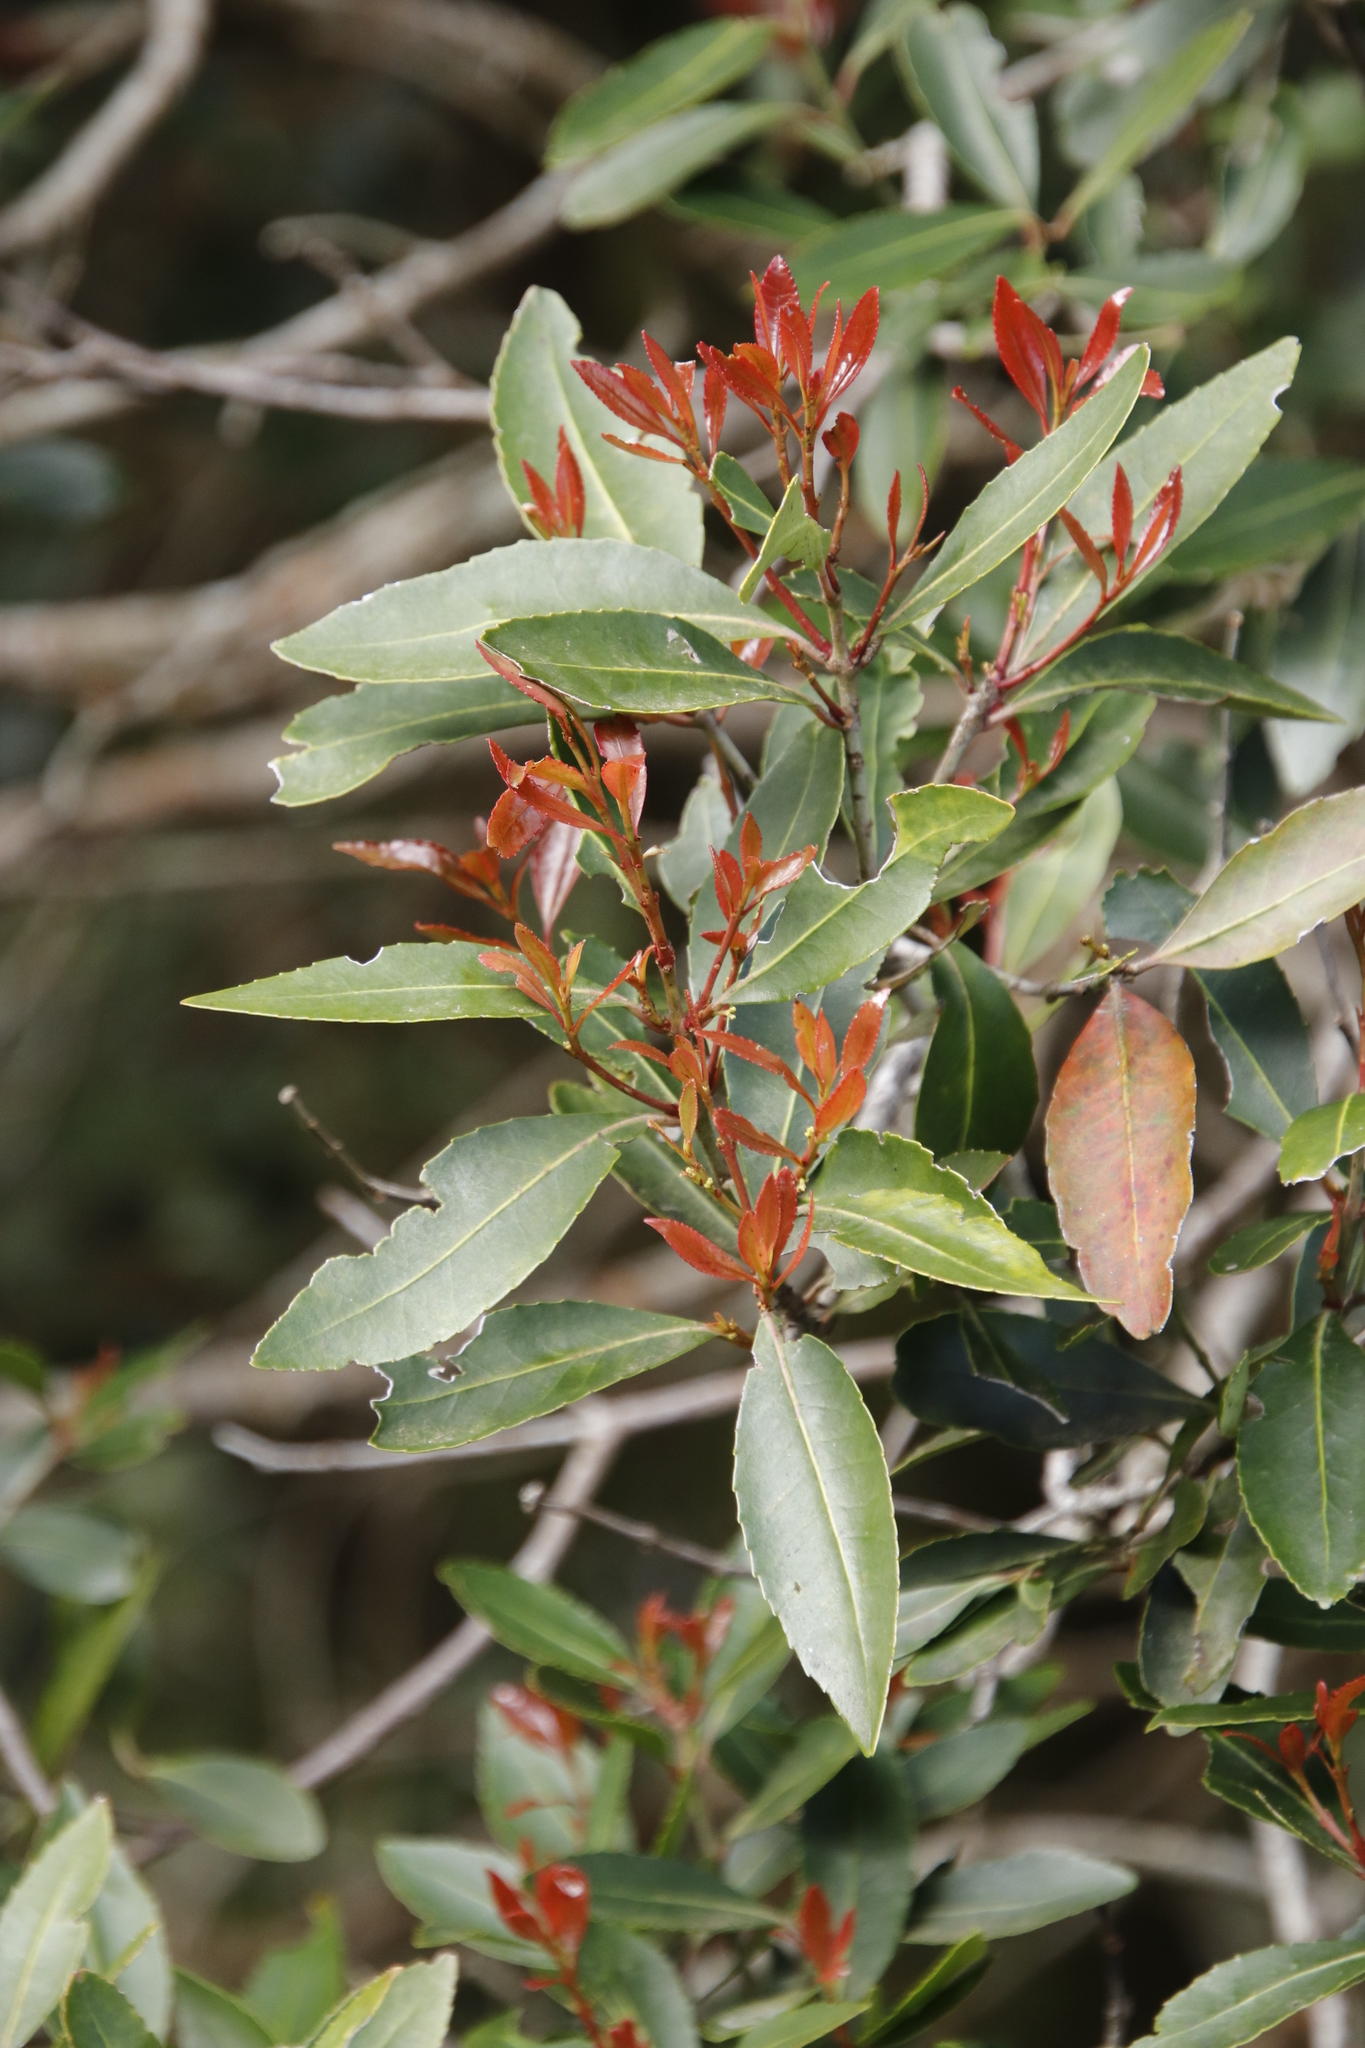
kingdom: Plantae
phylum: Tracheophyta
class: Magnoliopsida
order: Celastrales
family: Celastraceae
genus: Elaeodendron
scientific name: Elaeodendron schinoides
